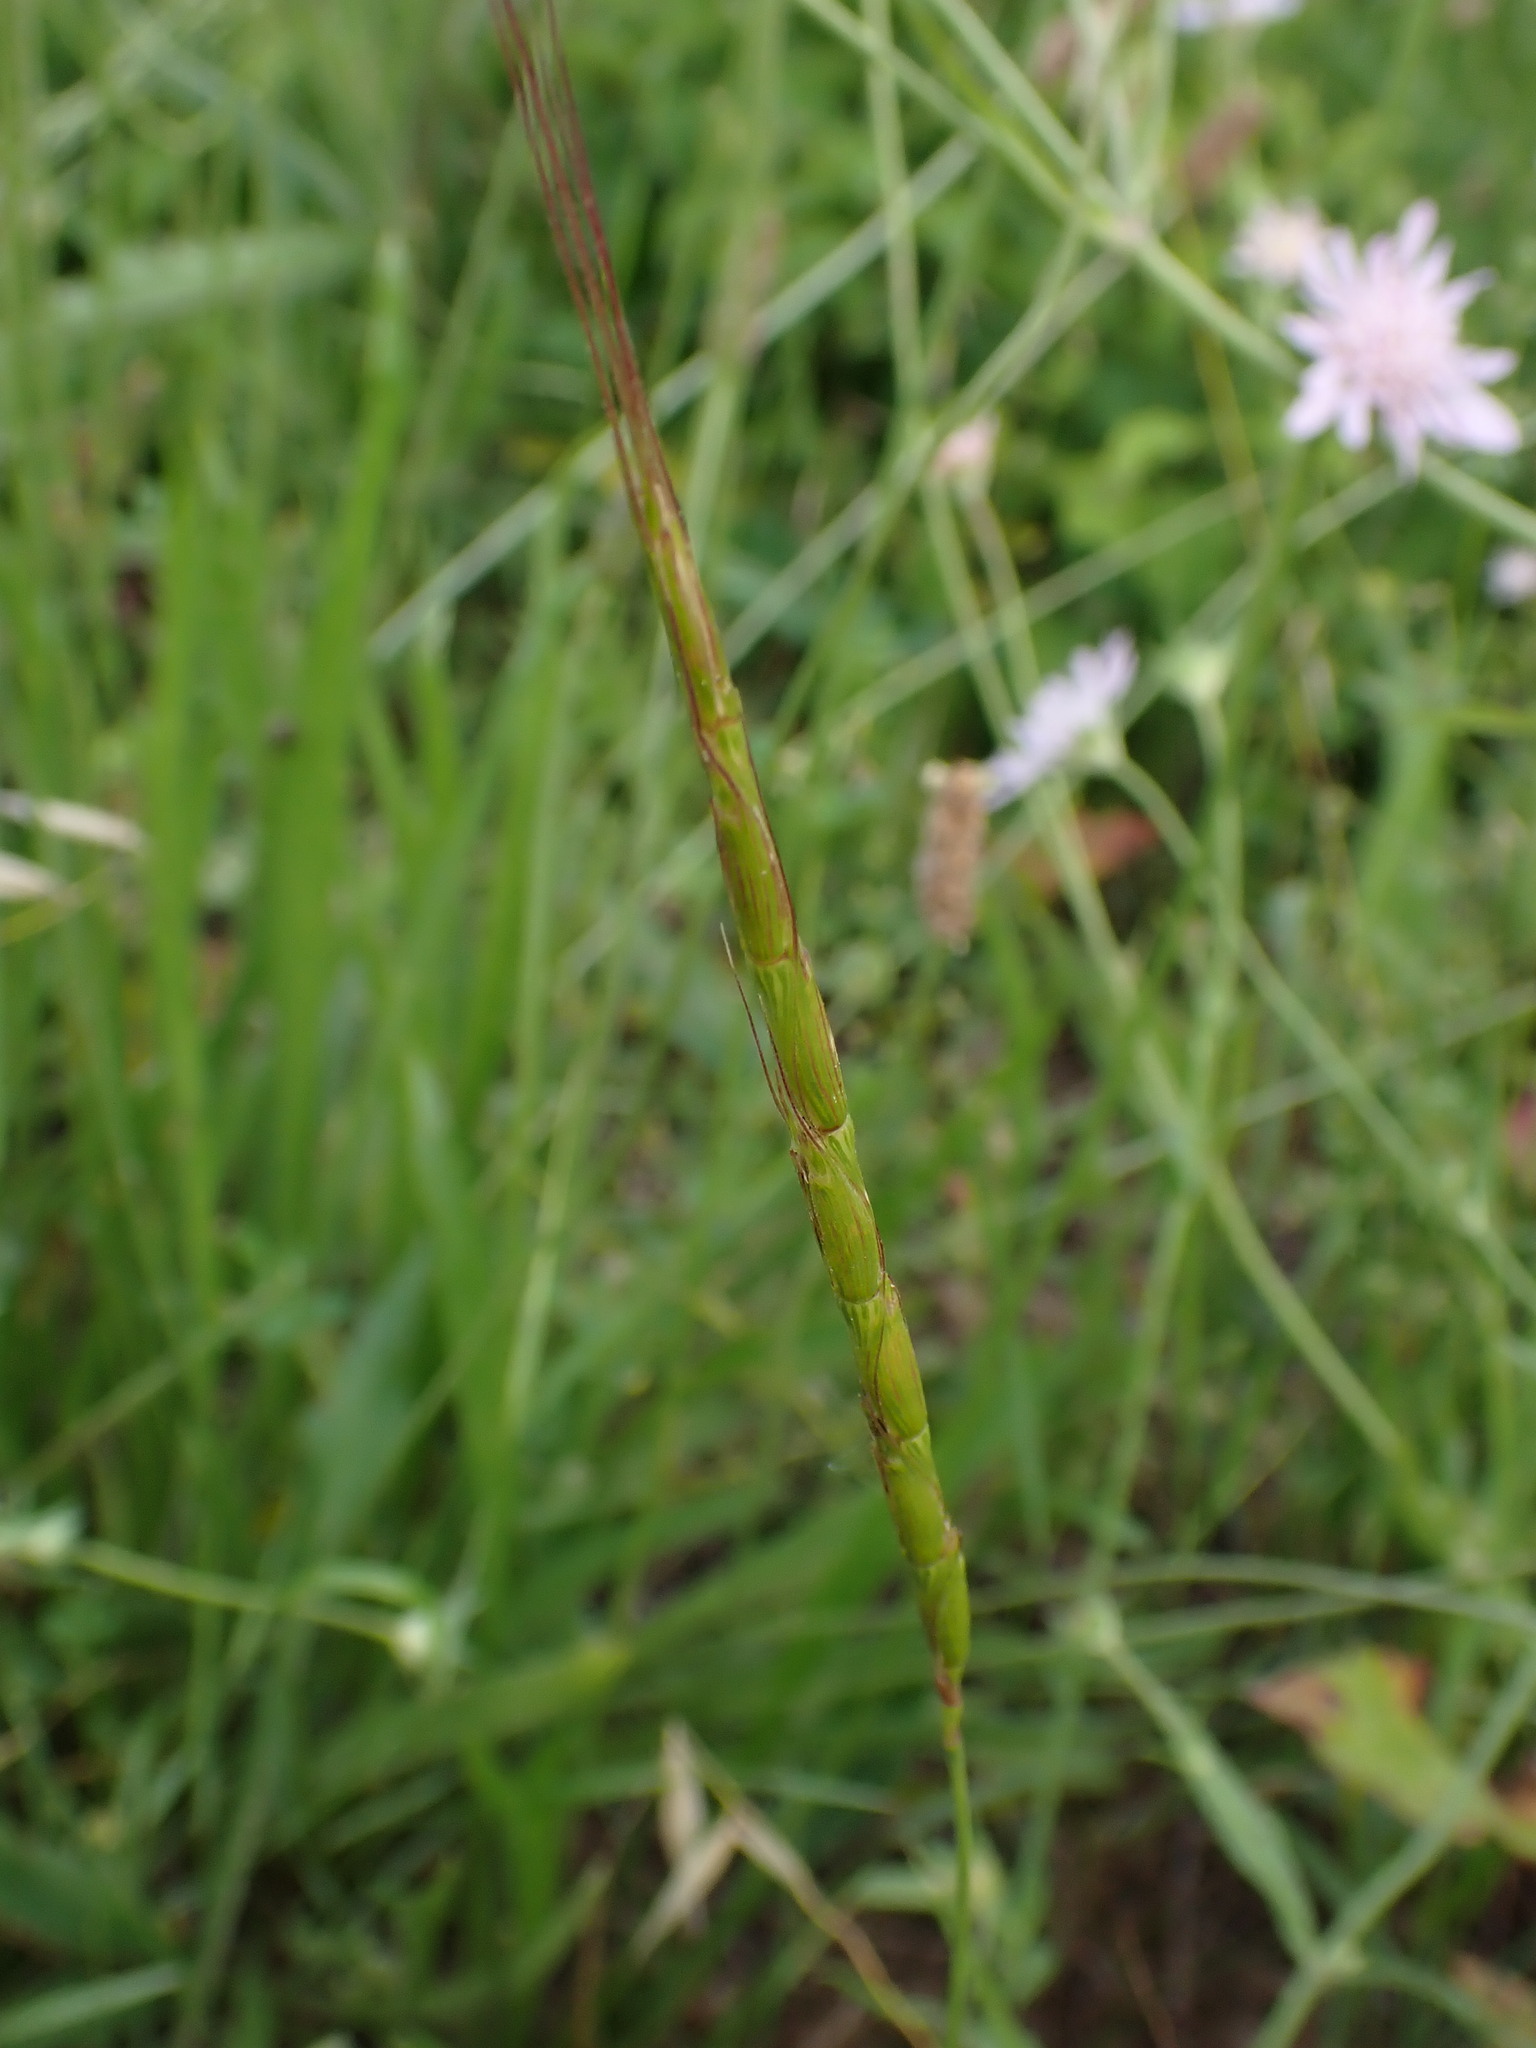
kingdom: Plantae
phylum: Tracheophyta
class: Liliopsida
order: Poales
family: Poaceae
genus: Aegilops
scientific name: Aegilops cylindrica
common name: Jointed goatgrass
